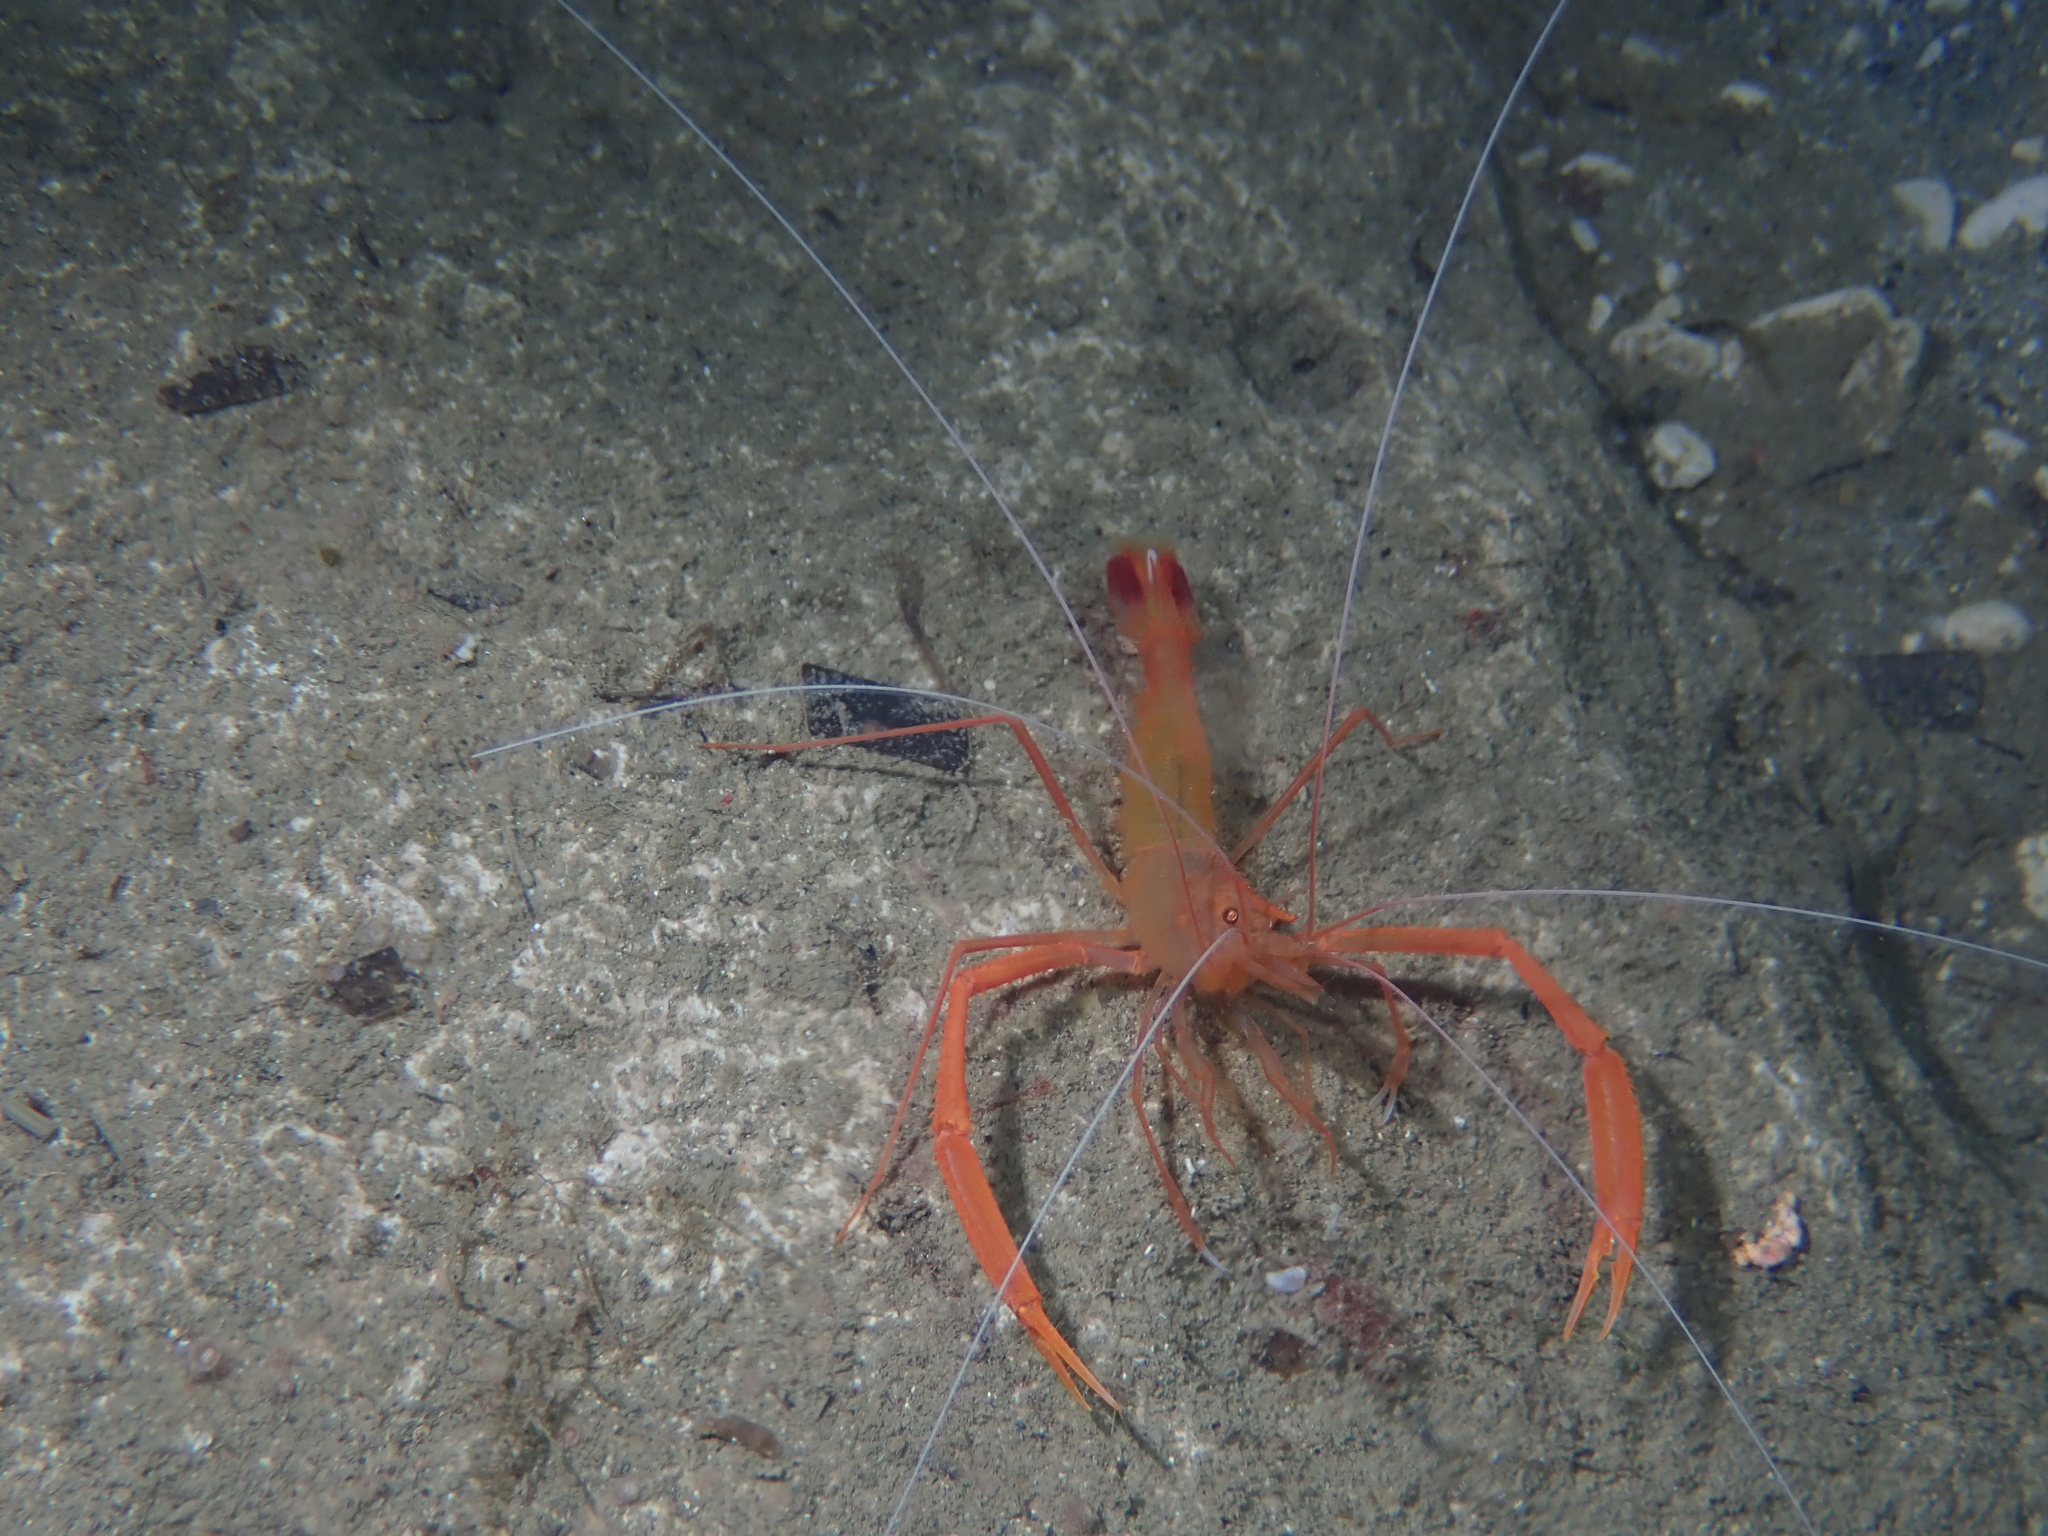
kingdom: Animalia
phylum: Arthropoda
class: Malacostraca
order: Decapoda
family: Stenopodidae
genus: Stenopus
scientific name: Stenopus spinosus
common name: Golden coral shrimp
